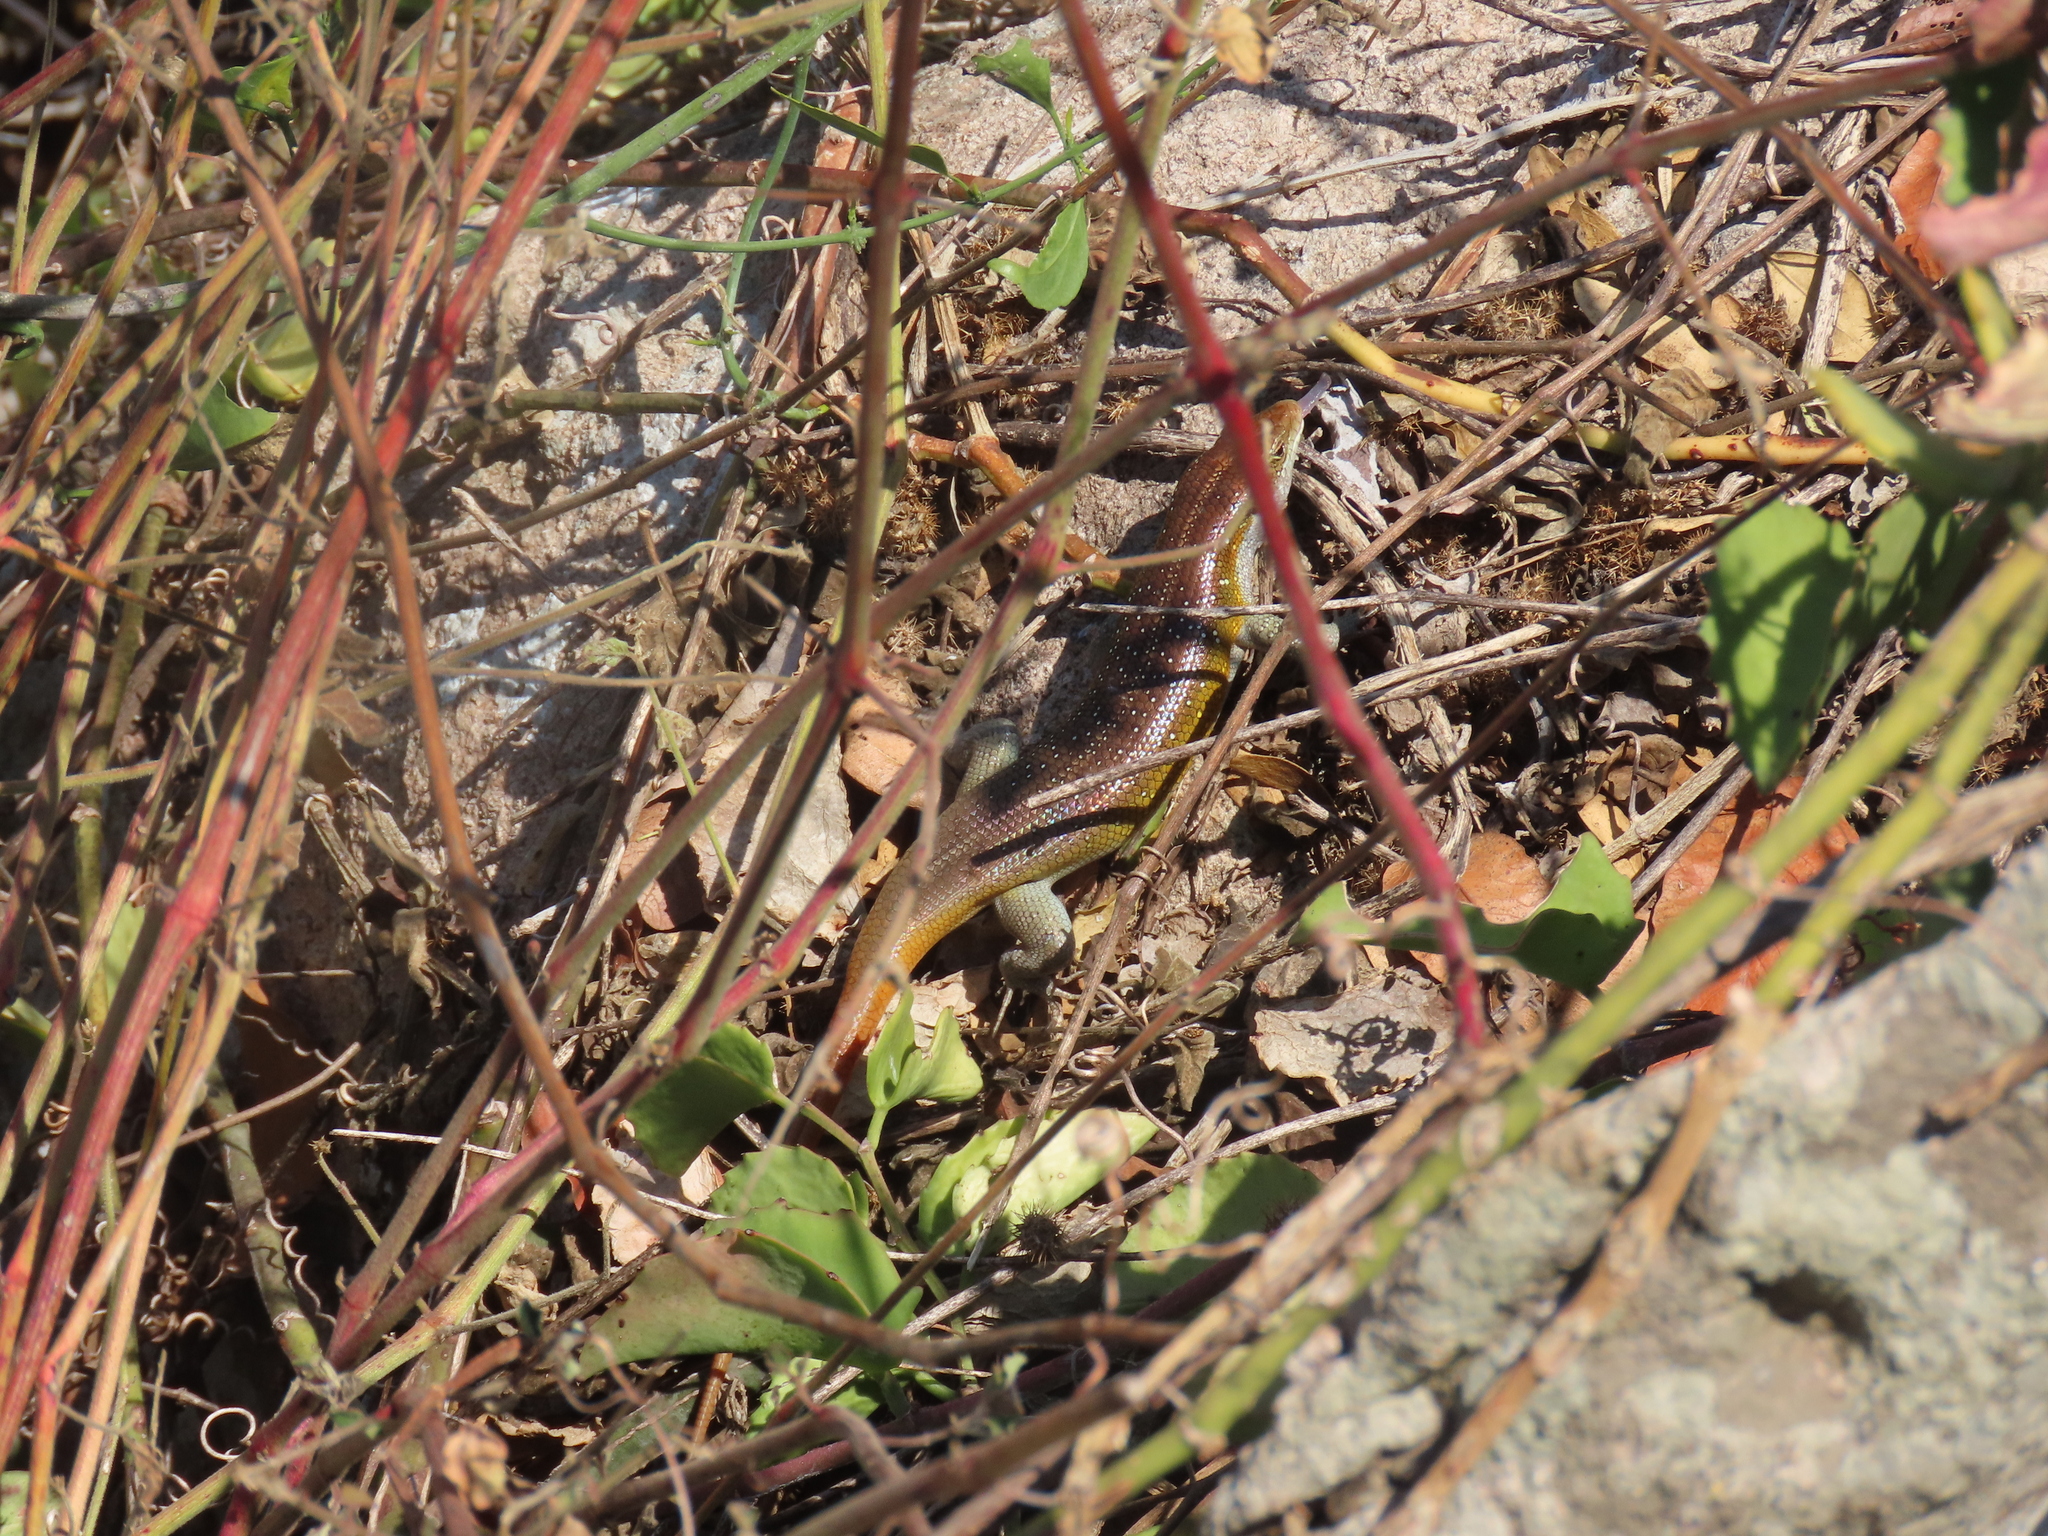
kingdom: Animalia
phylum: Chordata
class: Squamata
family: Scincidae
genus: Trachylepis
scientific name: Trachylepis margaritifera
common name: Rainbow skink
